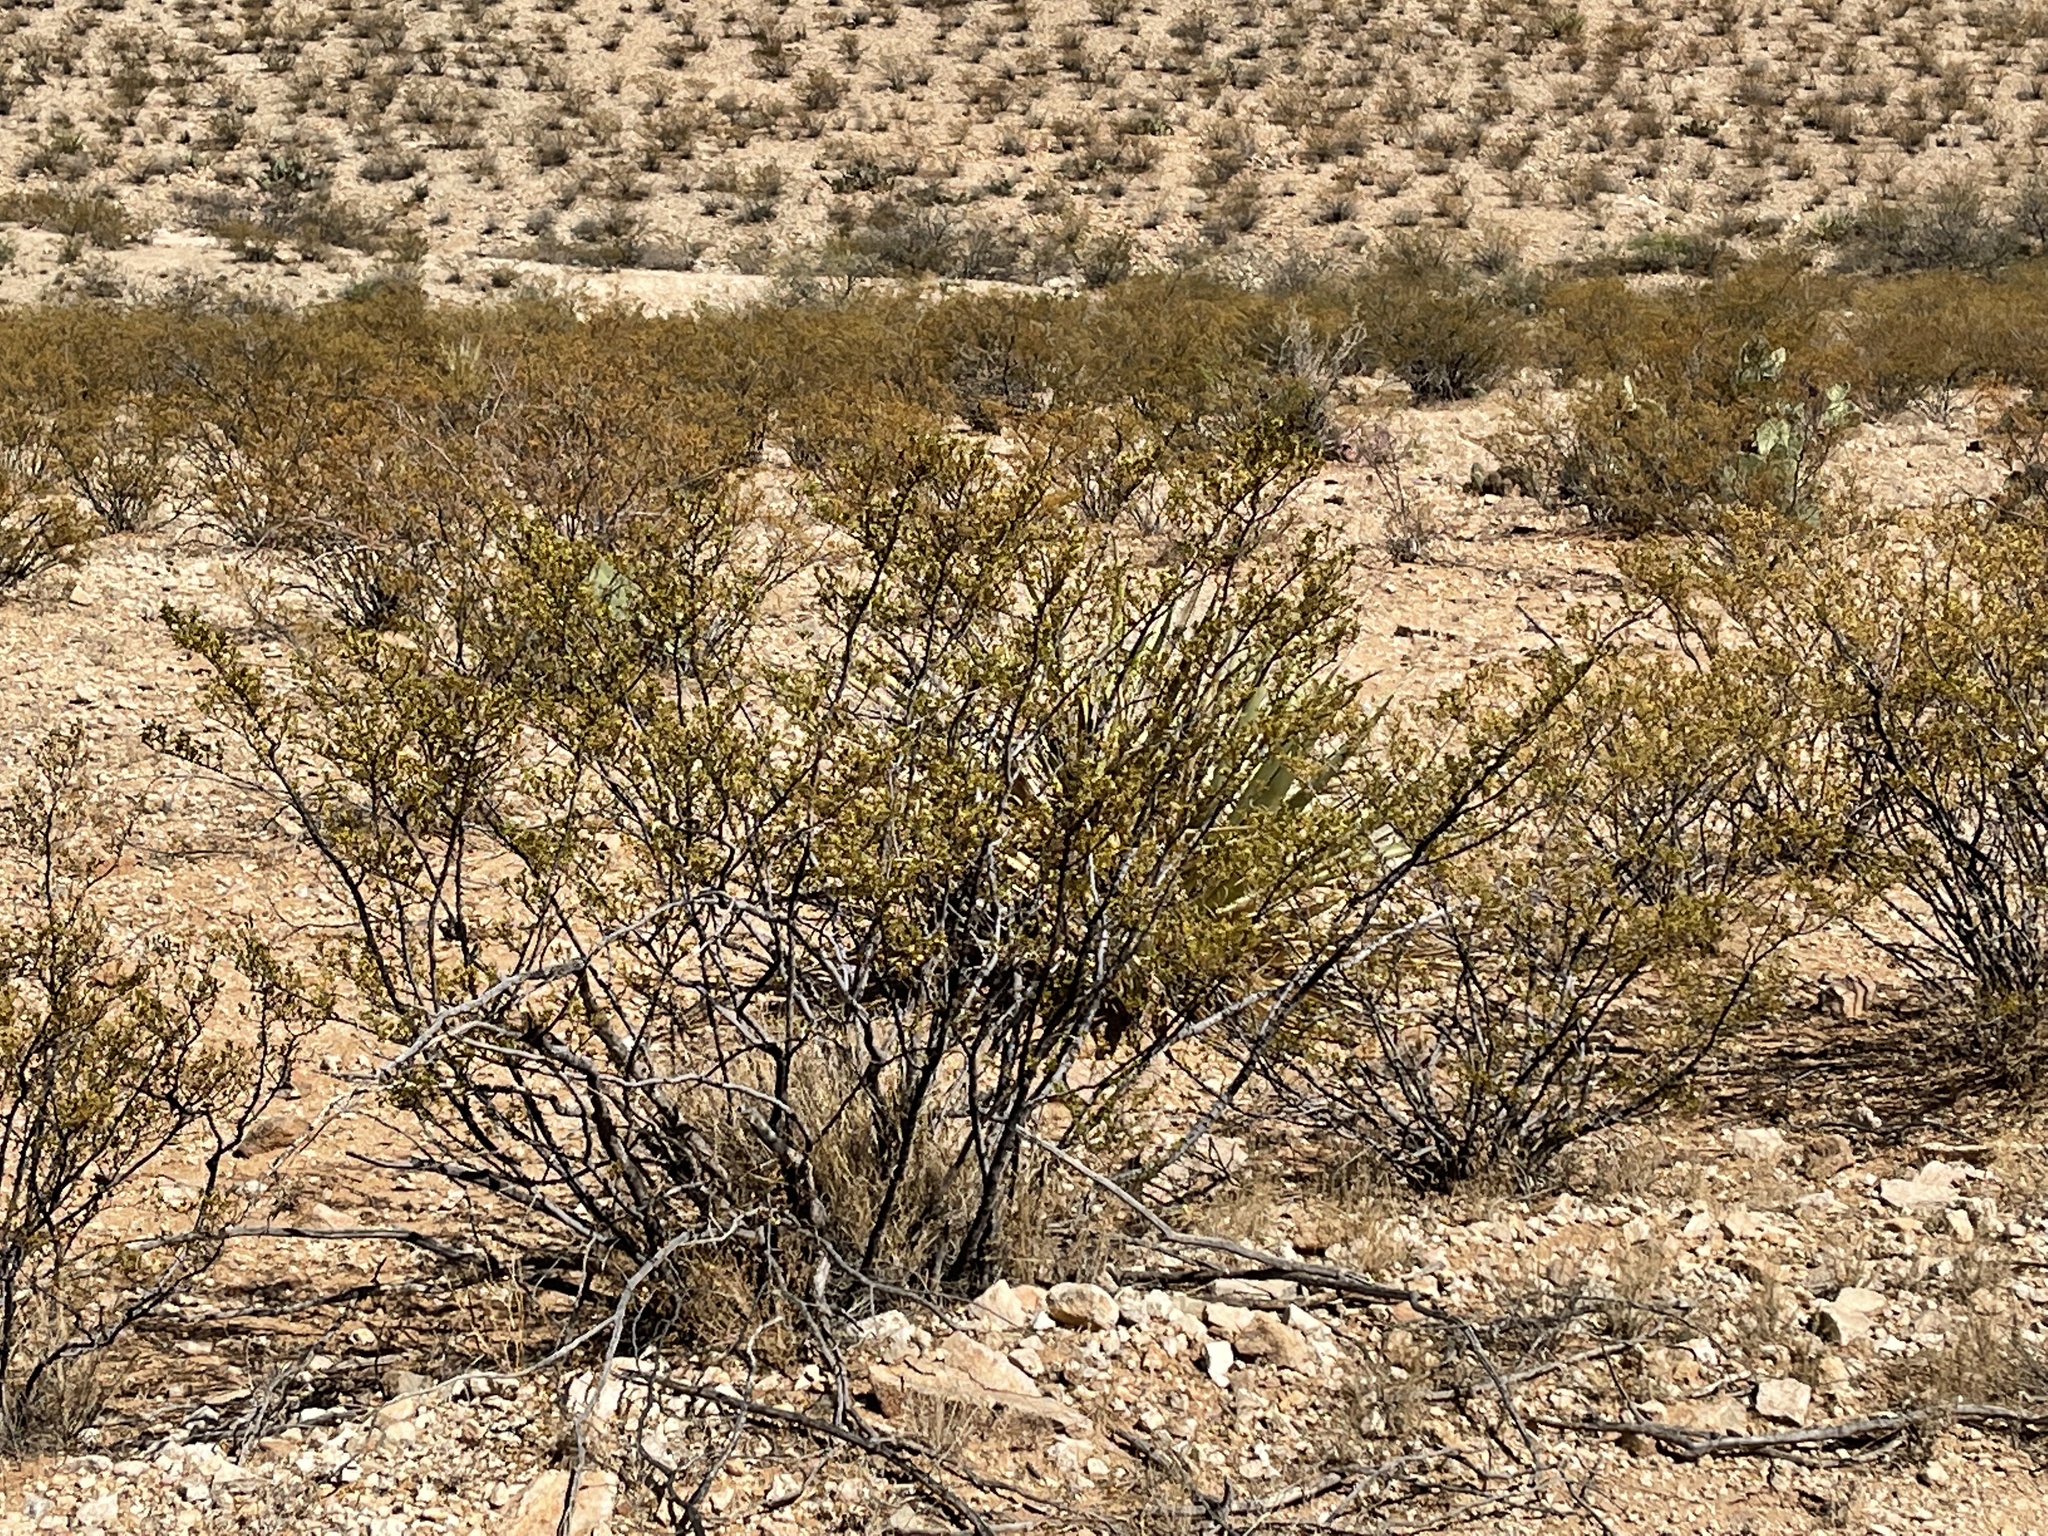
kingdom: Plantae
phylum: Tracheophyta
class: Magnoliopsida
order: Zygophyllales
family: Zygophyllaceae
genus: Larrea
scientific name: Larrea tridentata
